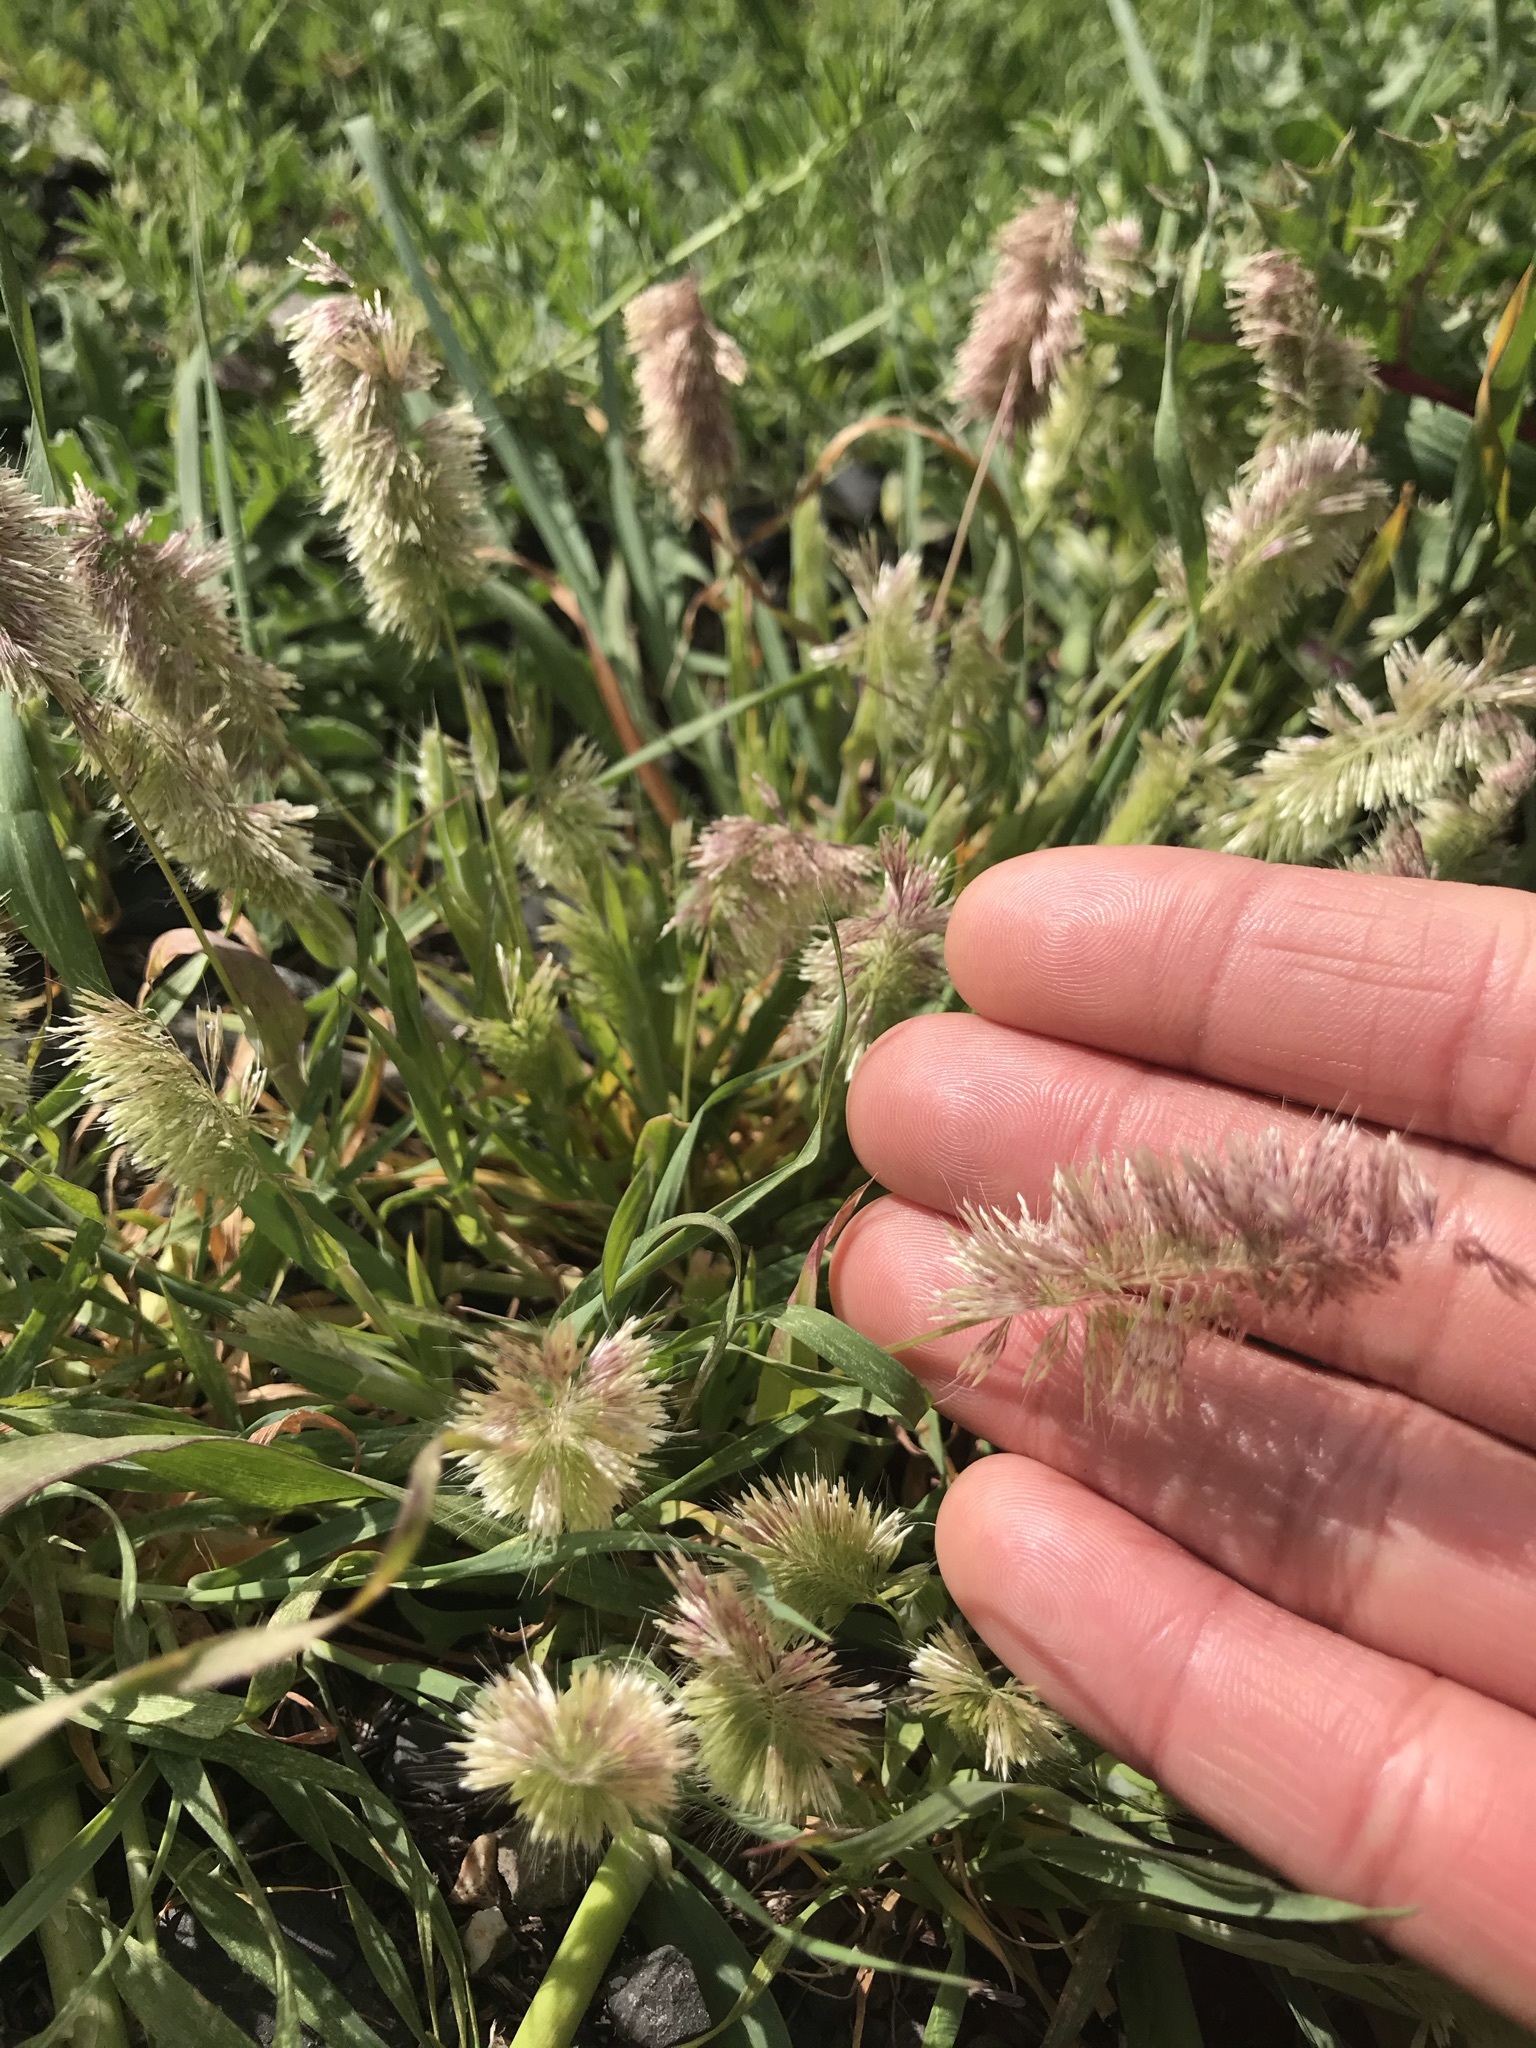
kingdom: Plantae
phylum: Tracheophyta
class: Liliopsida
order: Poales
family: Poaceae
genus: Lamarckia
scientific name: Lamarckia aurea
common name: Golden dog's-tail
